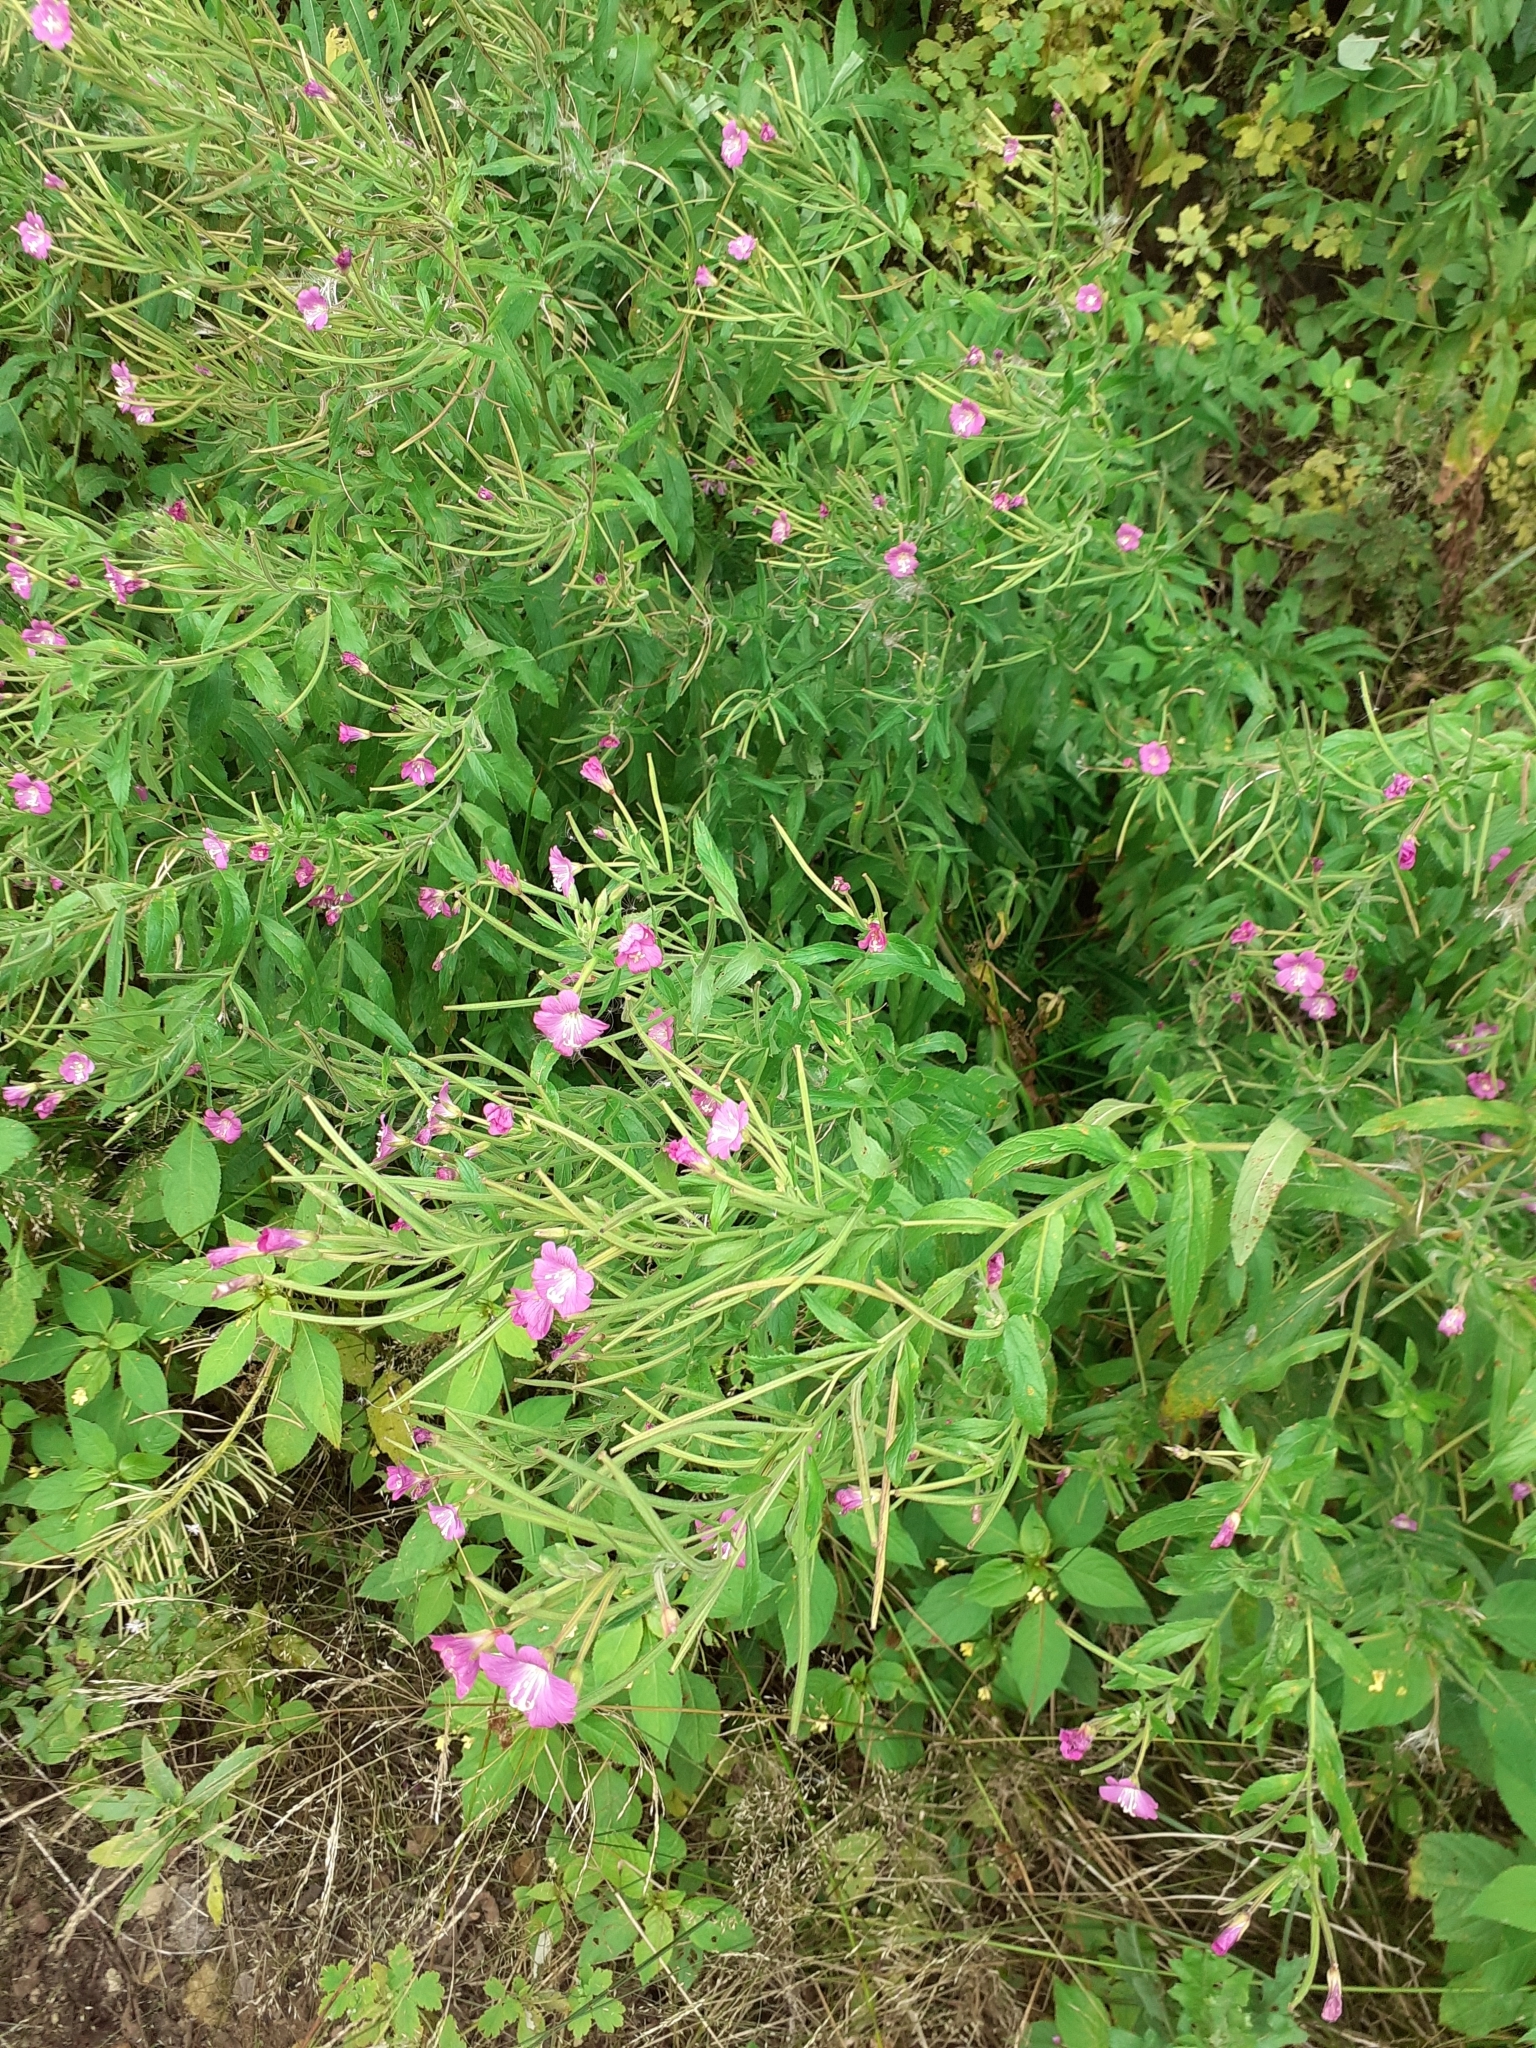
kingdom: Plantae
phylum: Tracheophyta
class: Magnoliopsida
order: Myrtales
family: Onagraceae
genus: Epilobium
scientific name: Epilobium hirsutum
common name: Great willowherb
